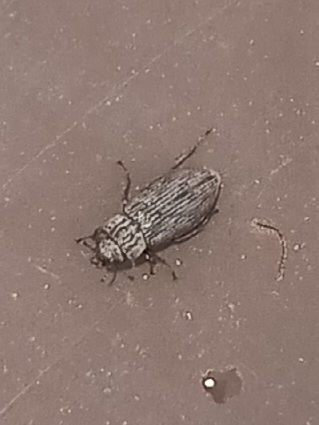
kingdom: Animalia
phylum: Arthropoda
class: Insecta
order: Coleoptera
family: Helophoridae
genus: Helophorus
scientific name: Helophorus
